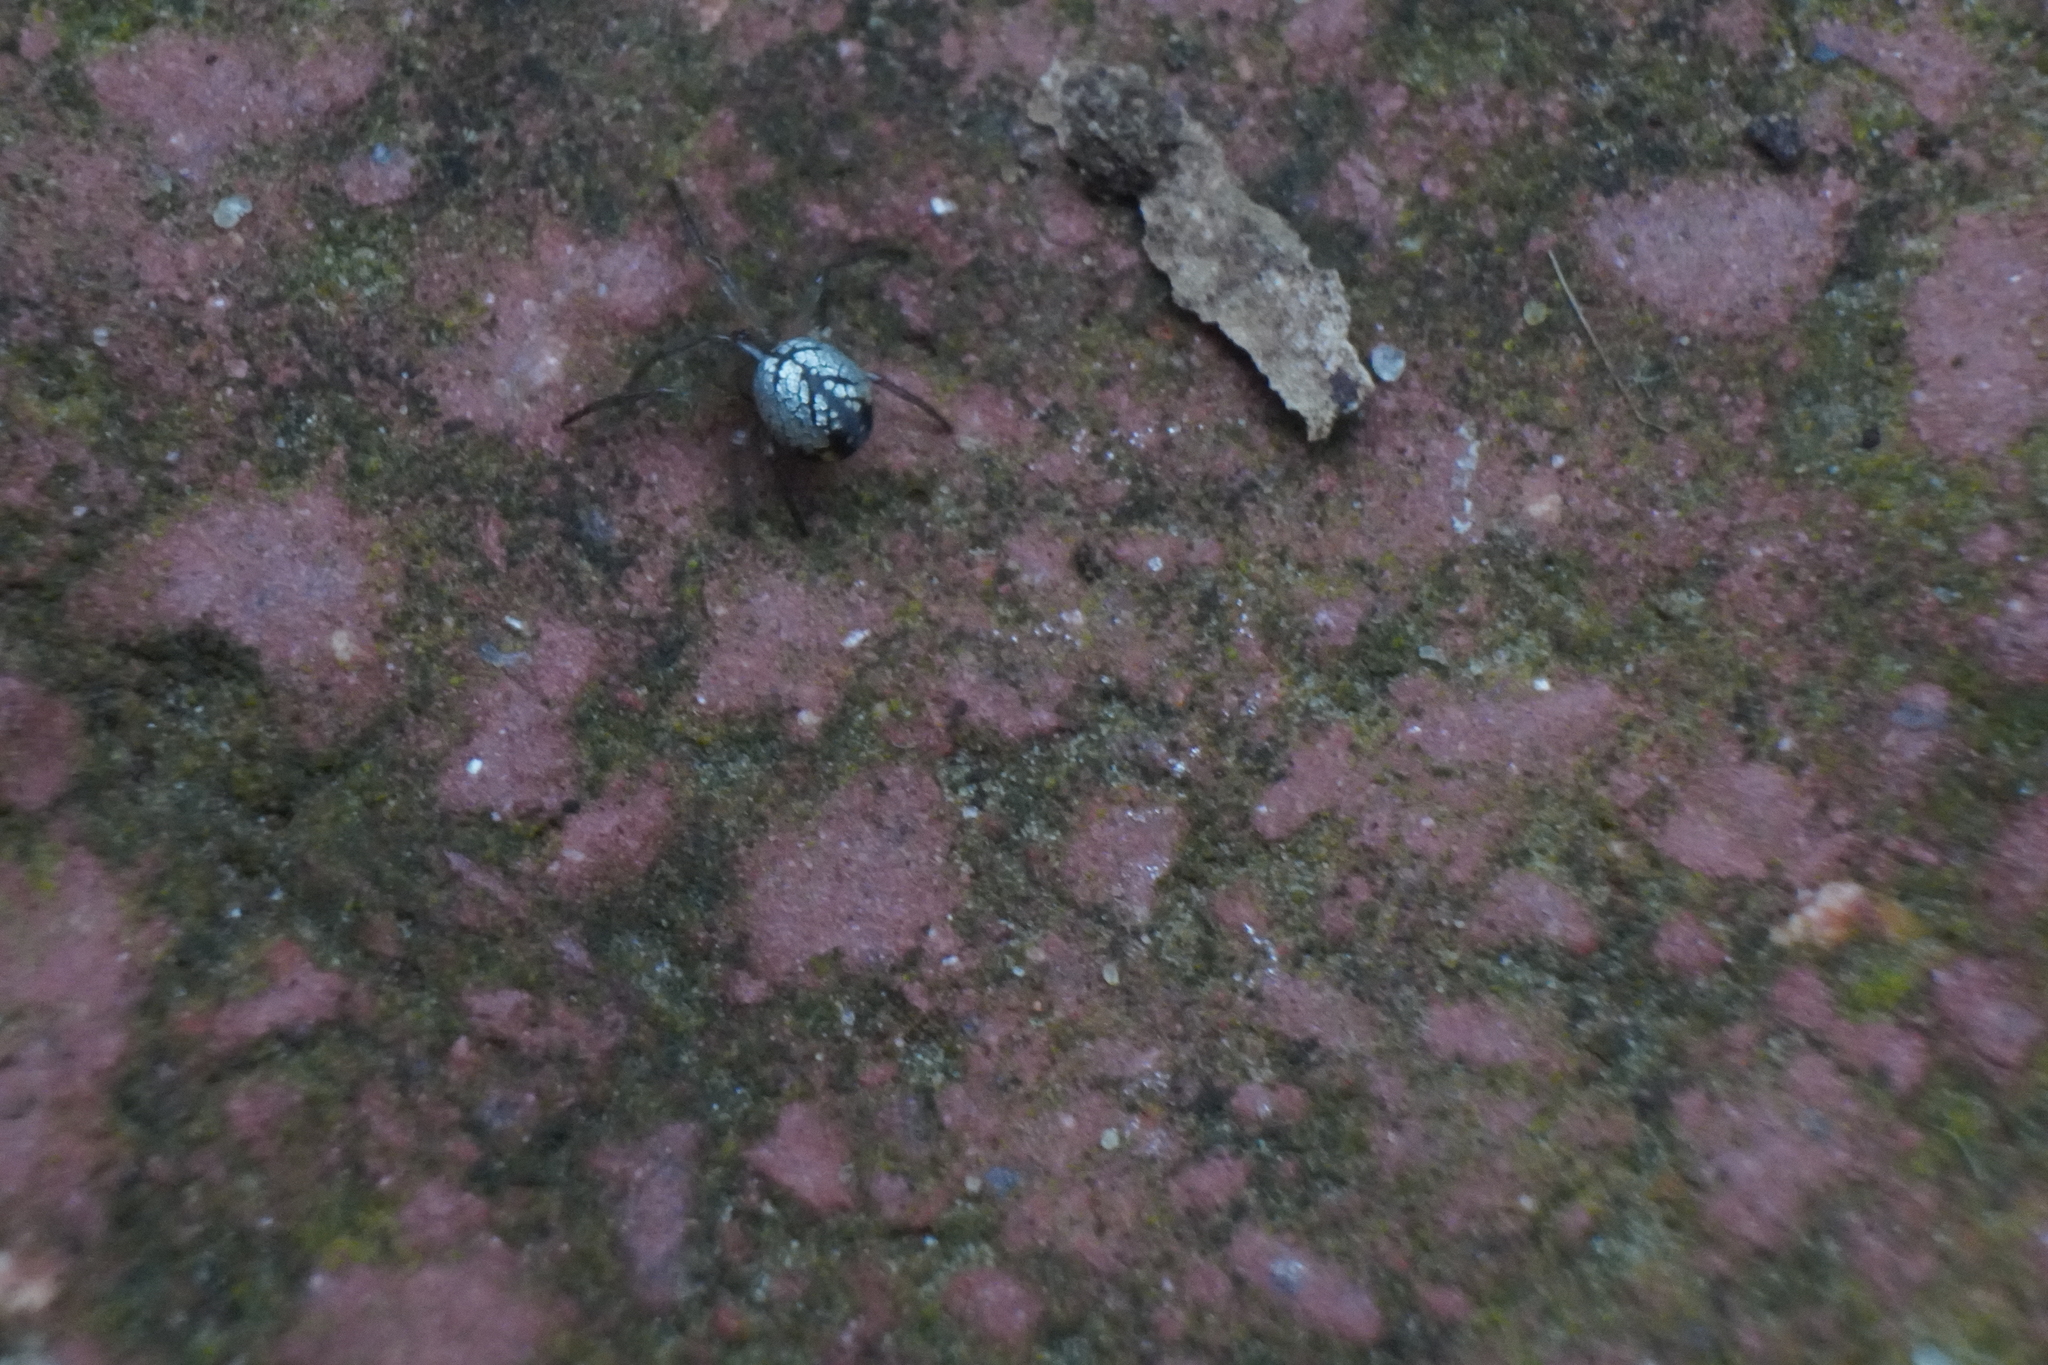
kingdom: Animalia
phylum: Arthropoda
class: Arachnida
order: Araneae
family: Tetragnathidae
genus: Leucauge
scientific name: Leucauge venusta
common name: Longjawed orb weavers
